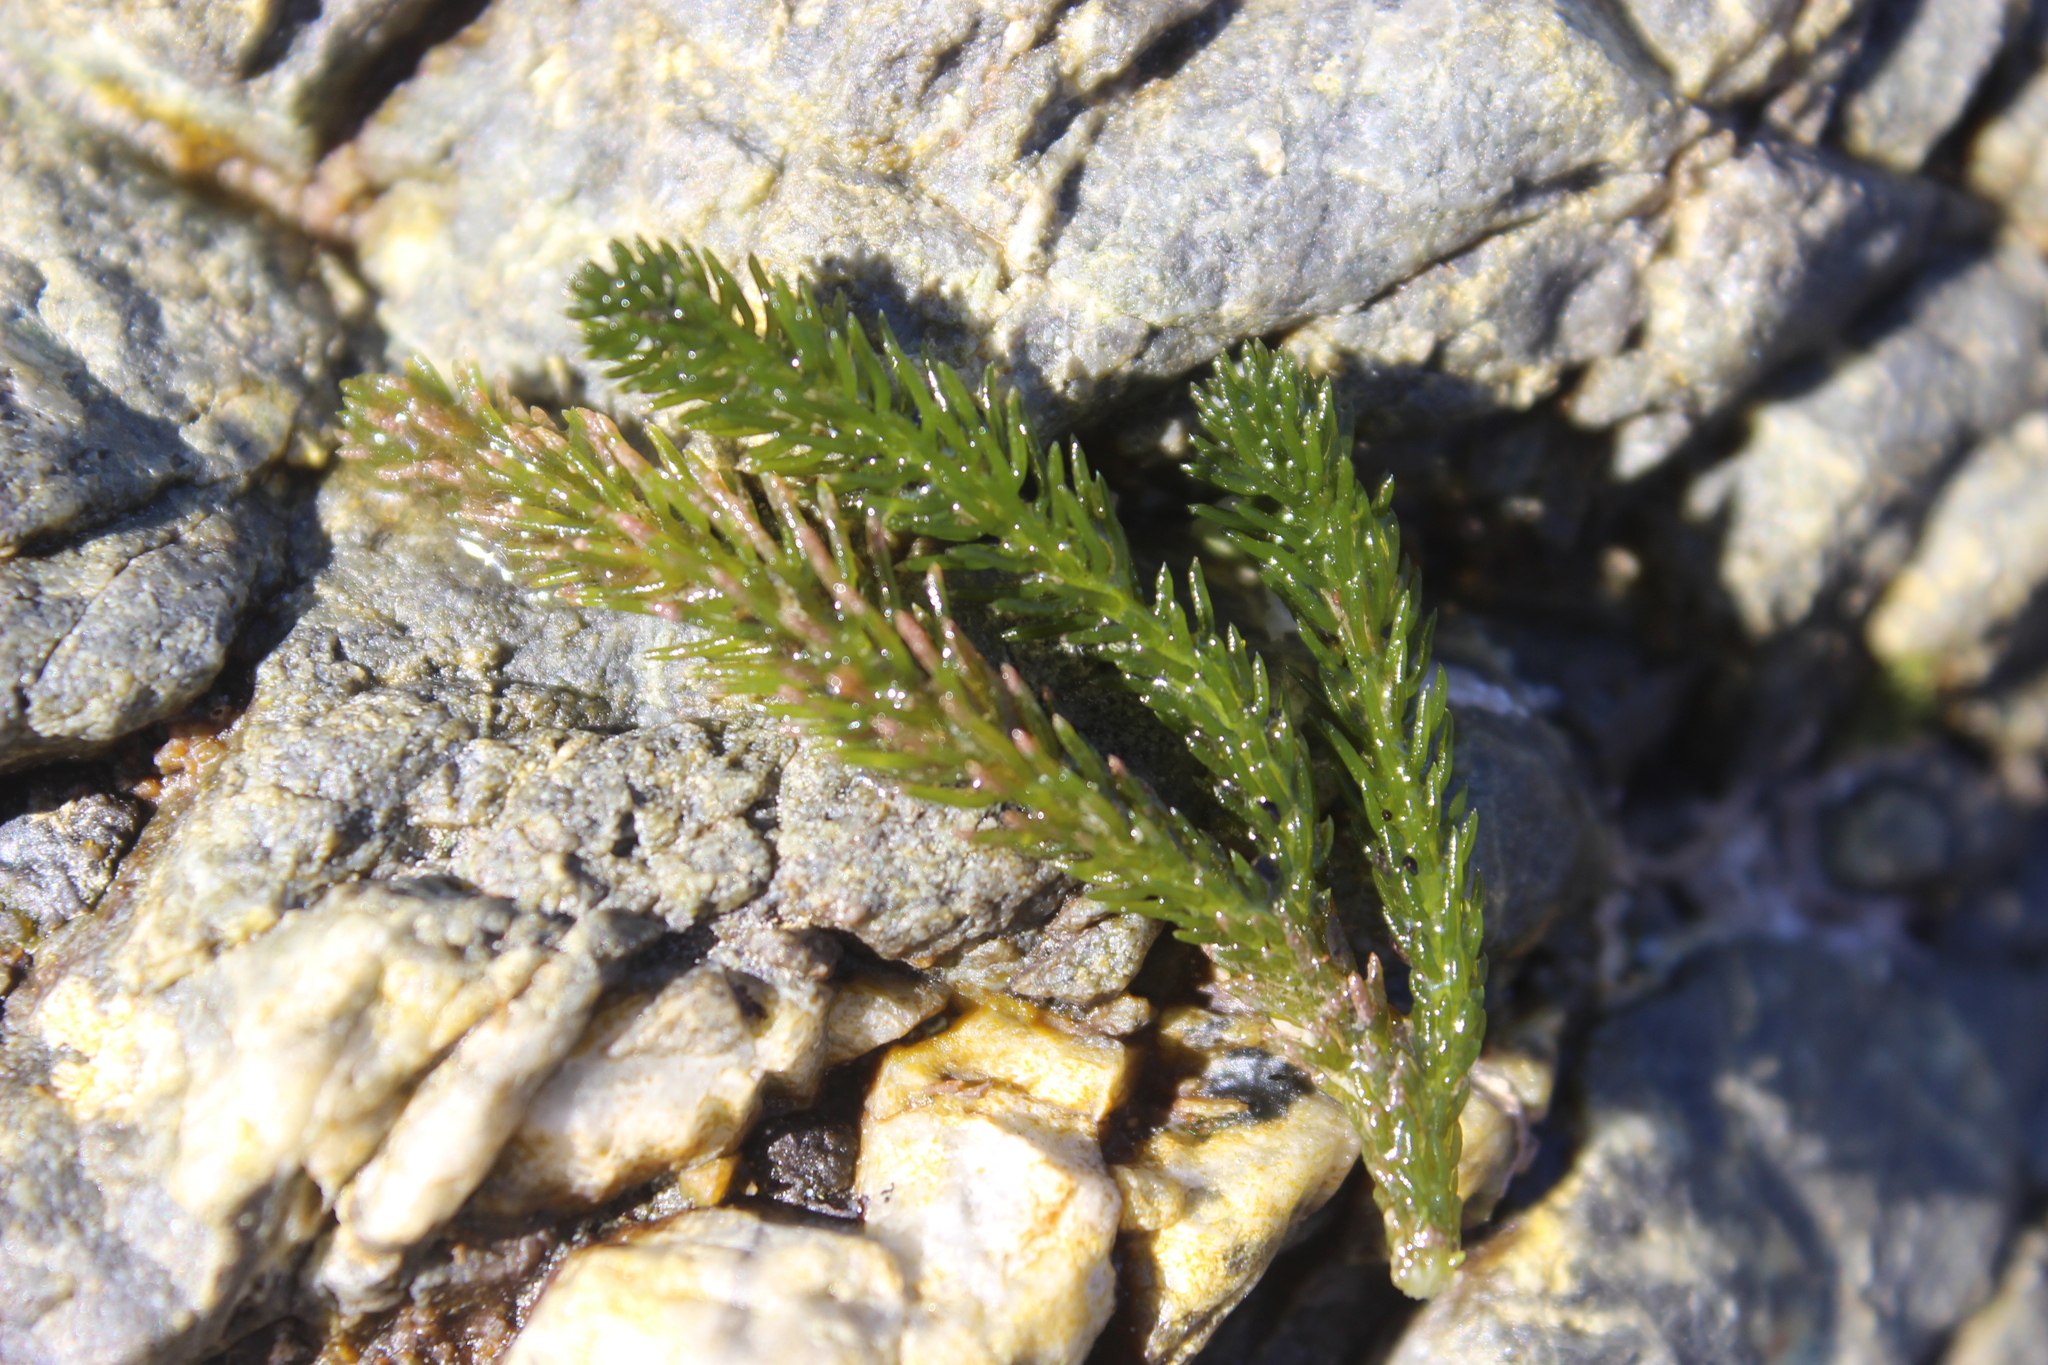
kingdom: Plantae
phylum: Chlorophyta
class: Ulvophyceae
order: Bryopsidales
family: Caulerpaceae
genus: Caulerpa
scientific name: Caulerpa brownii
